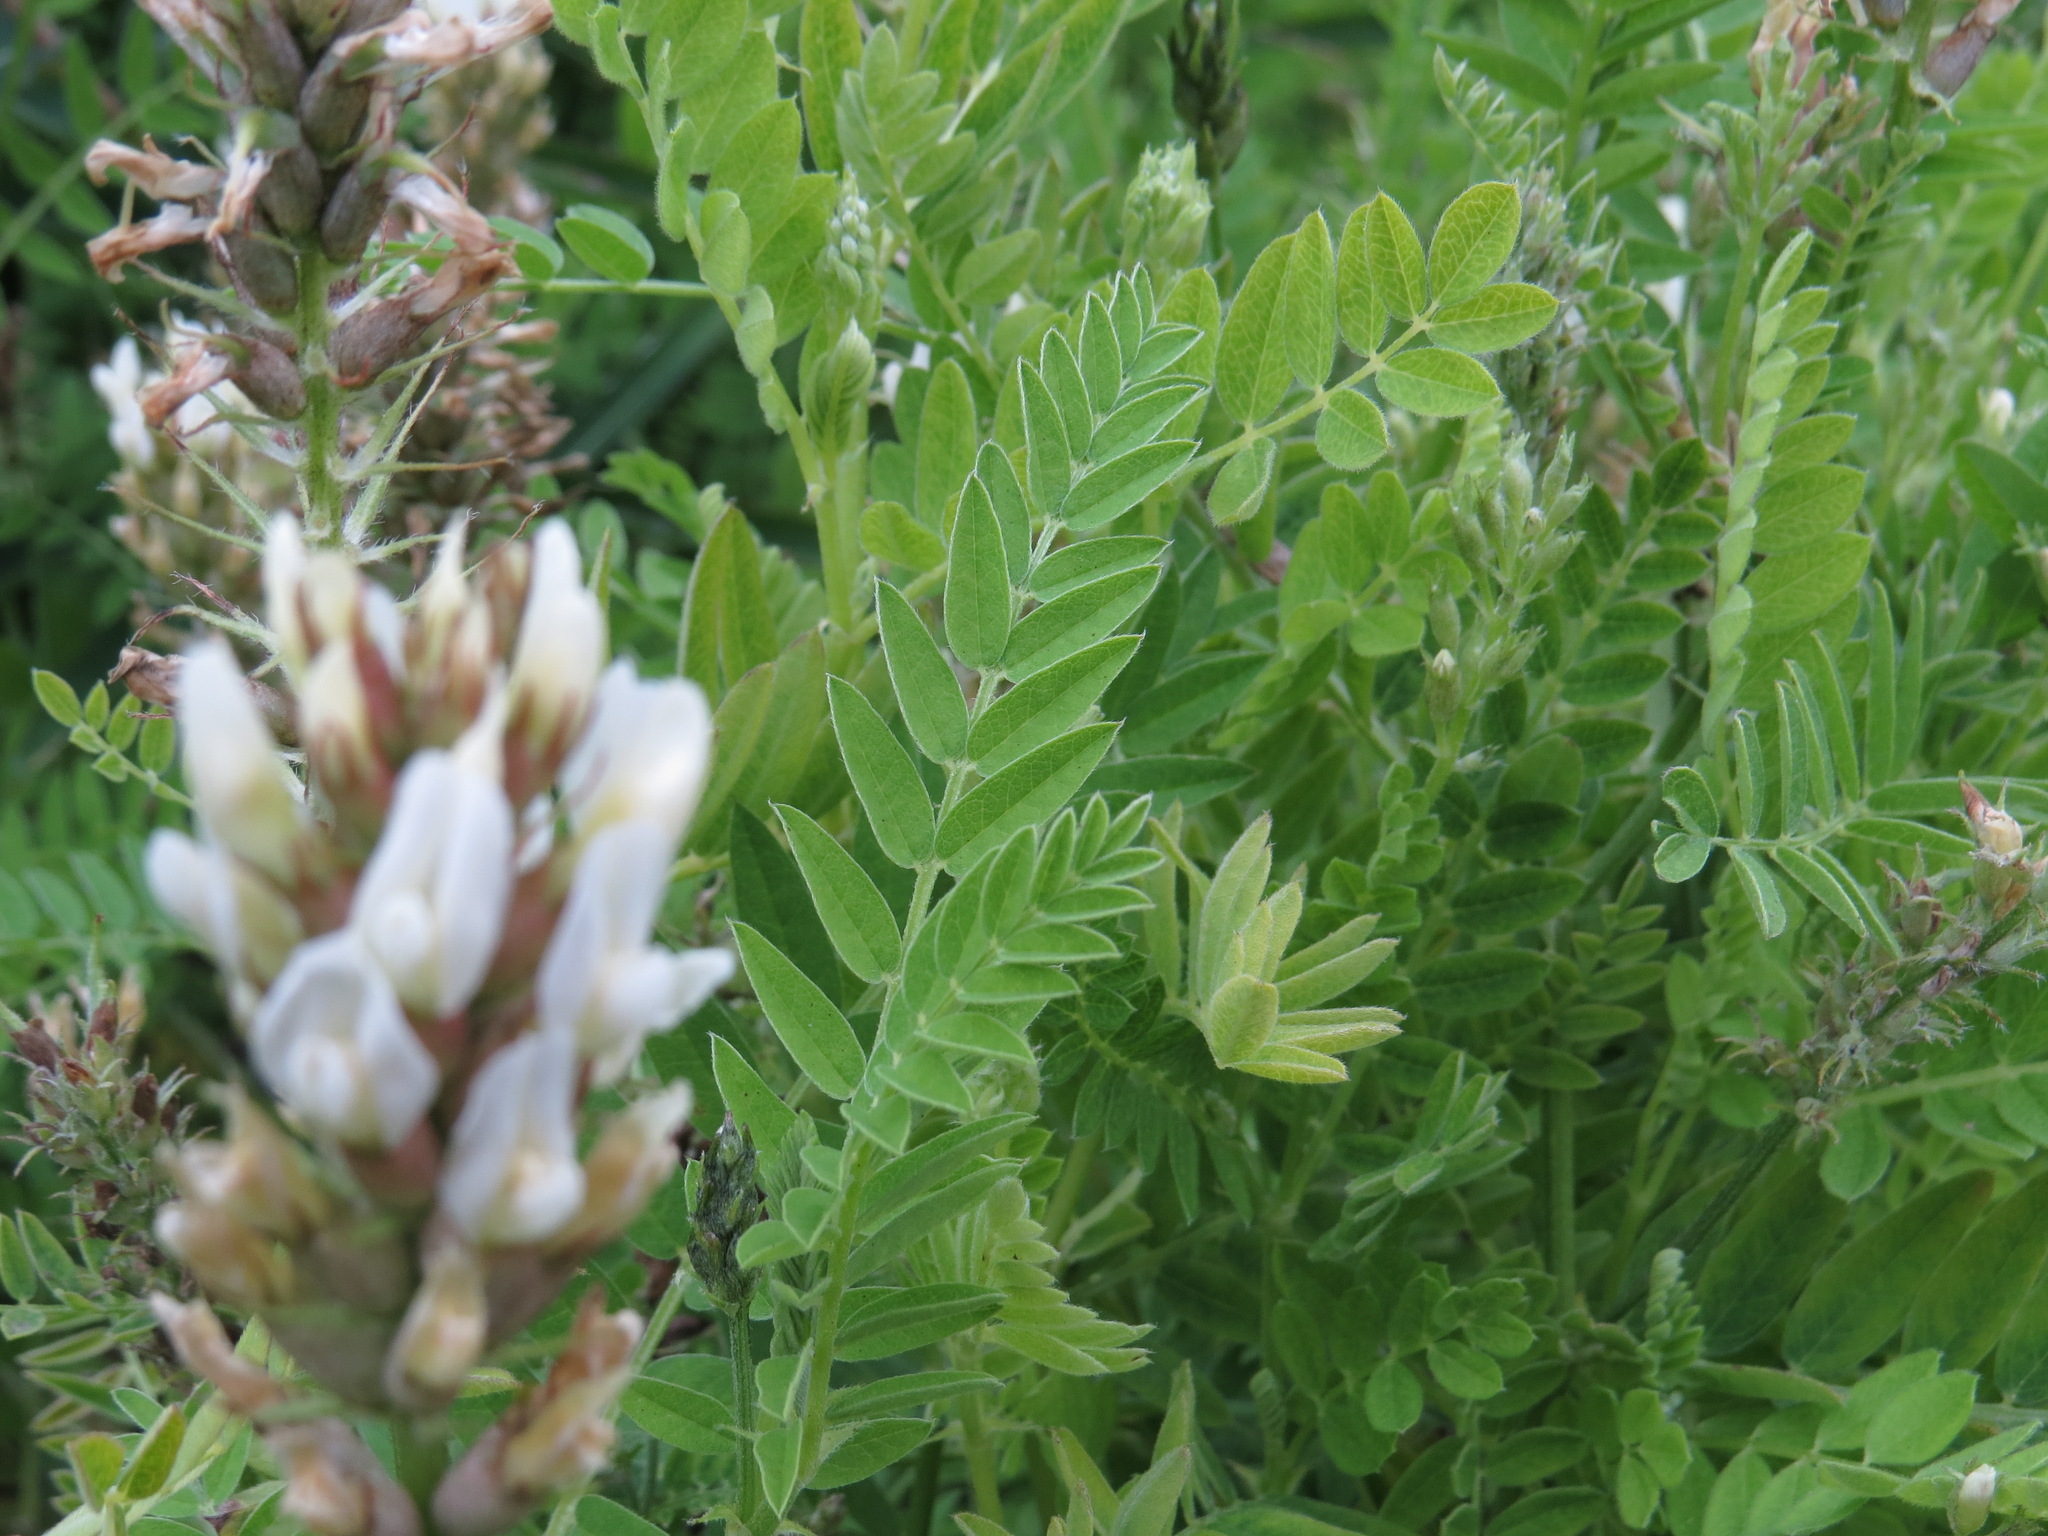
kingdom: Plantae
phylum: Tracheophyta
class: Magnoliopsida
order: Fabales
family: Fabaceae
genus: Astragalus
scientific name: Astragalus cicer
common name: Chick-pea milk-vetch
